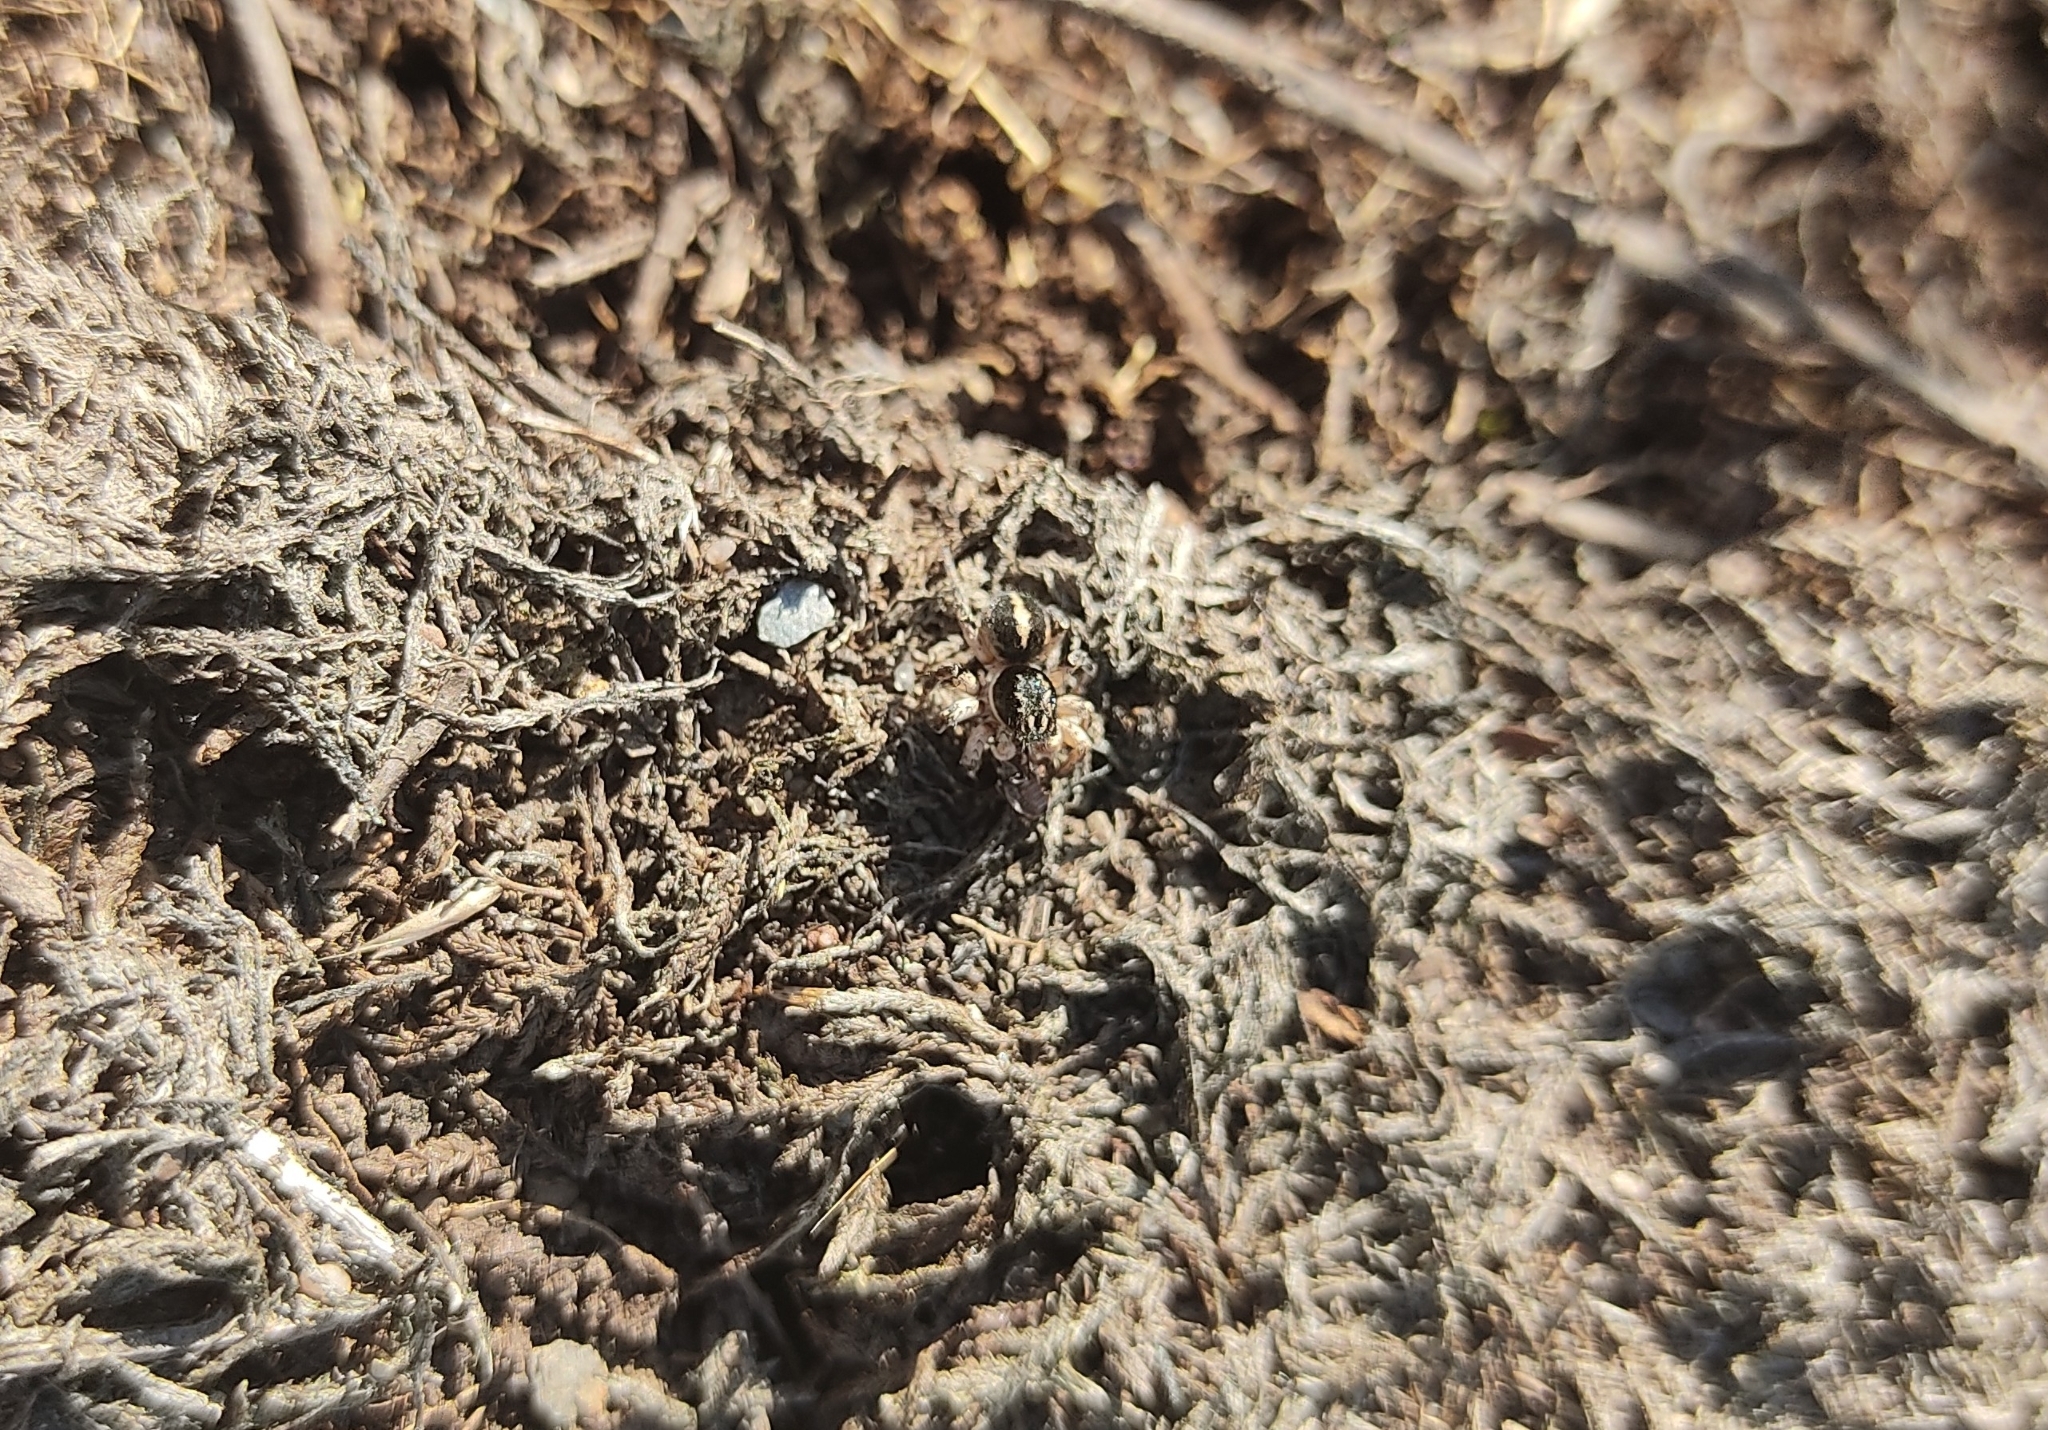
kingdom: Animalia
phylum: Arthropoda
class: Arachnida
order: Araneae
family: Salticidae
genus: Aelurillus
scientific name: Aelurillus v-insignitus
